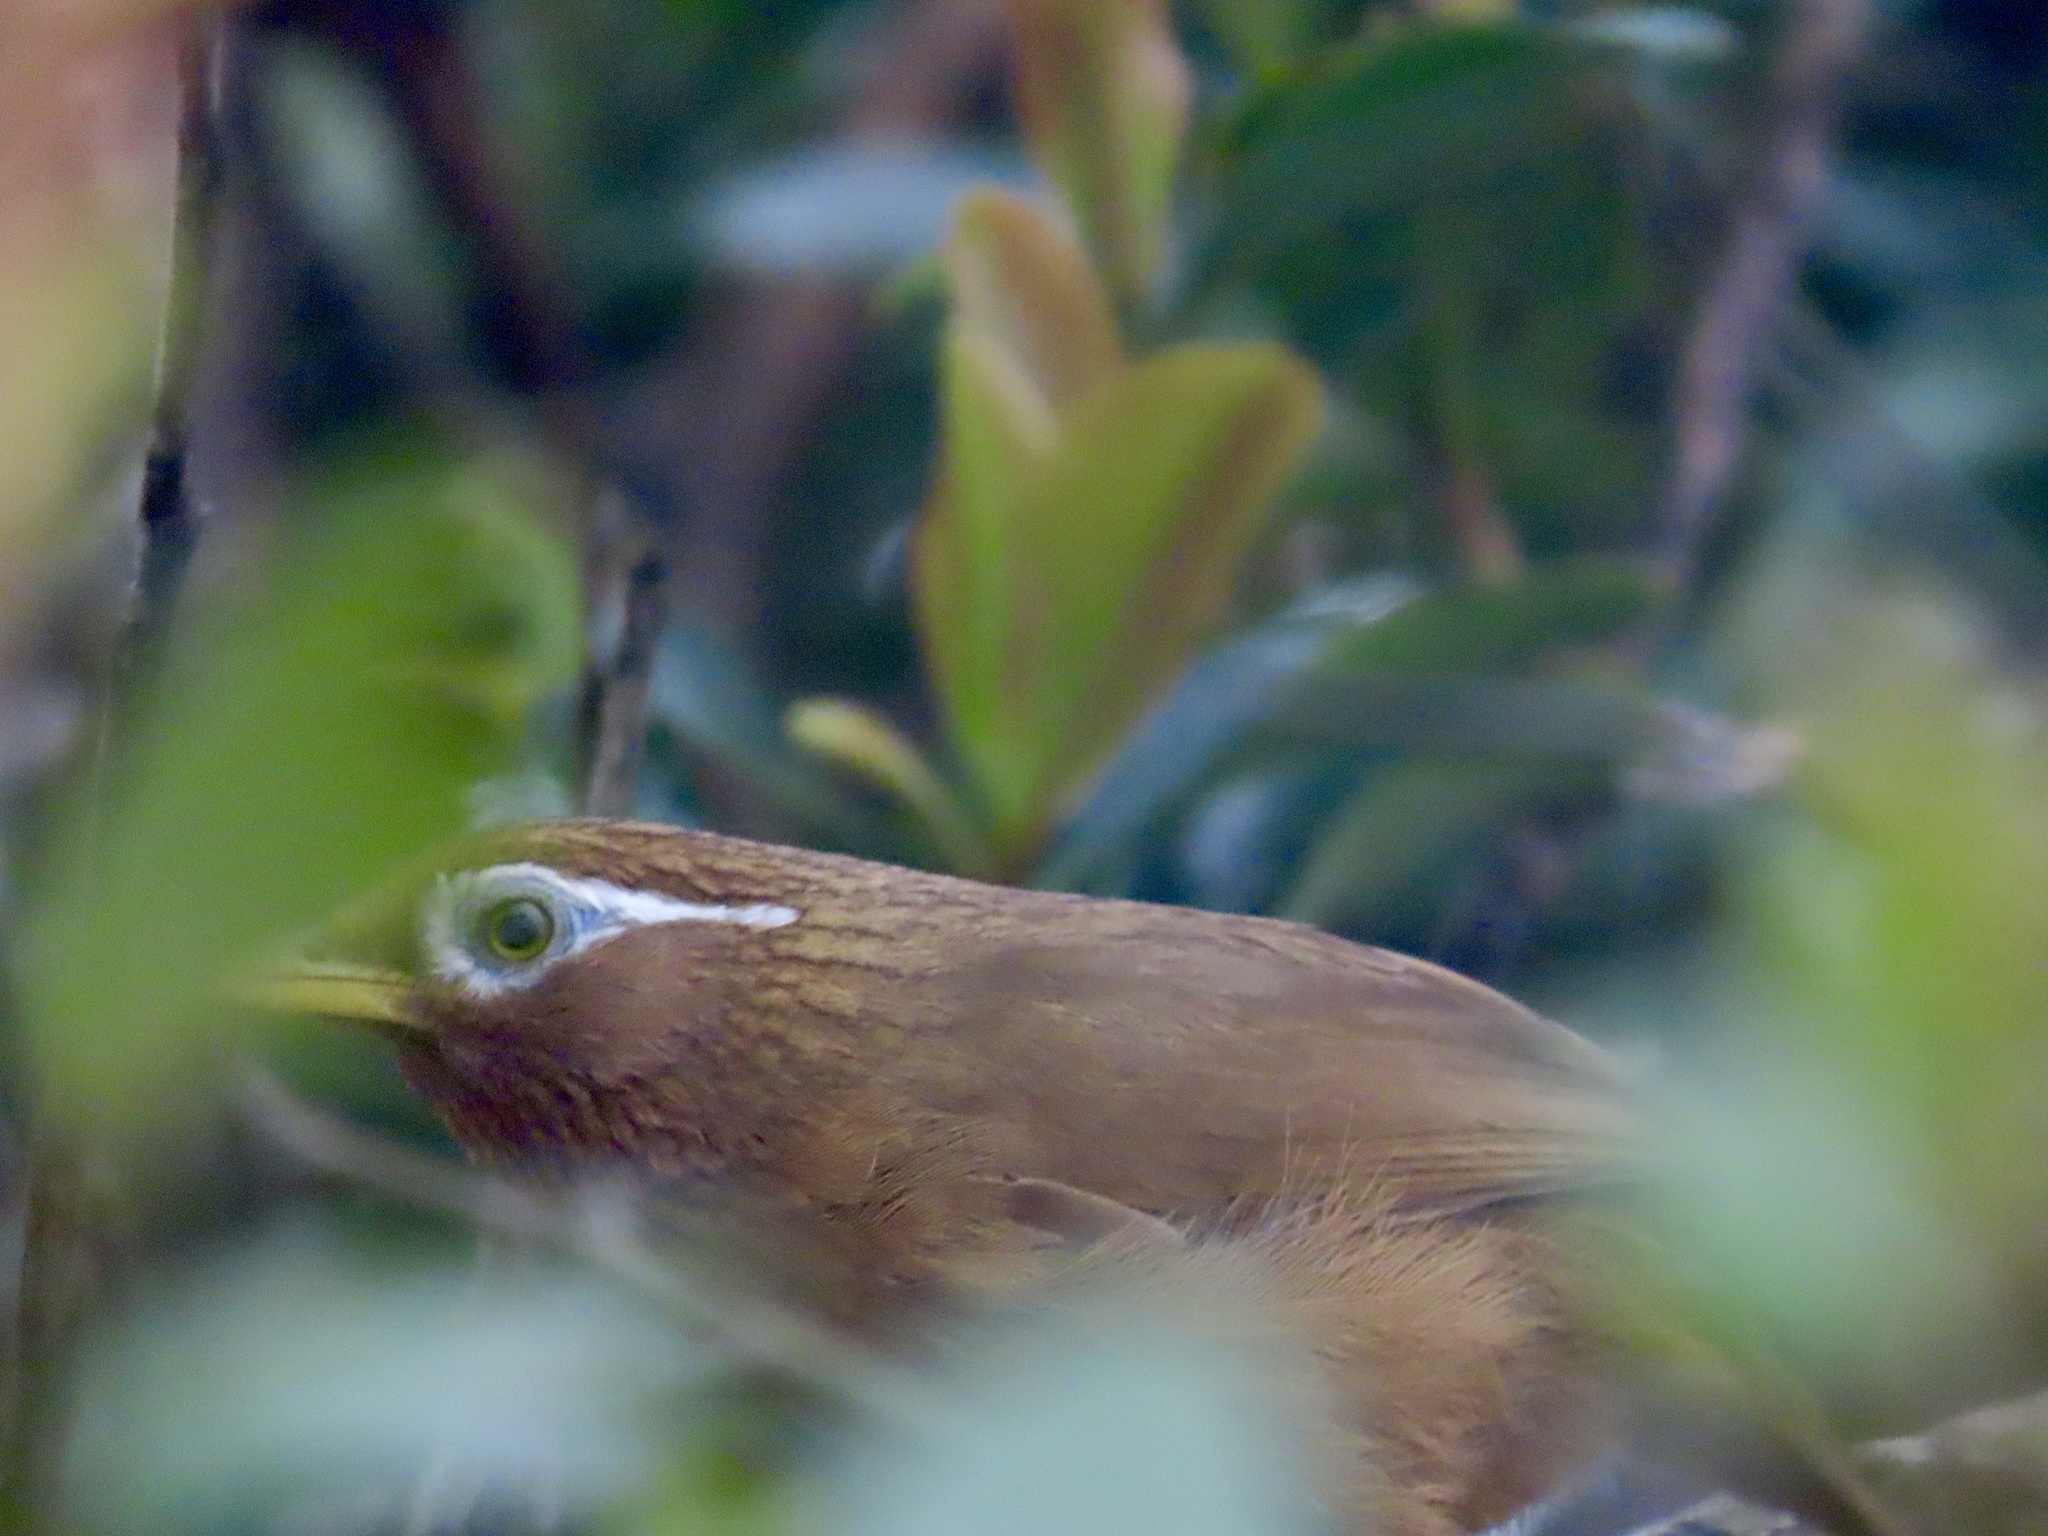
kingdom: Animalia
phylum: Chordata
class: Aves
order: Passeriformes
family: Leiothrichidae
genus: Garrulax
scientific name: Garrulax canorus
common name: Chinese hwamei
